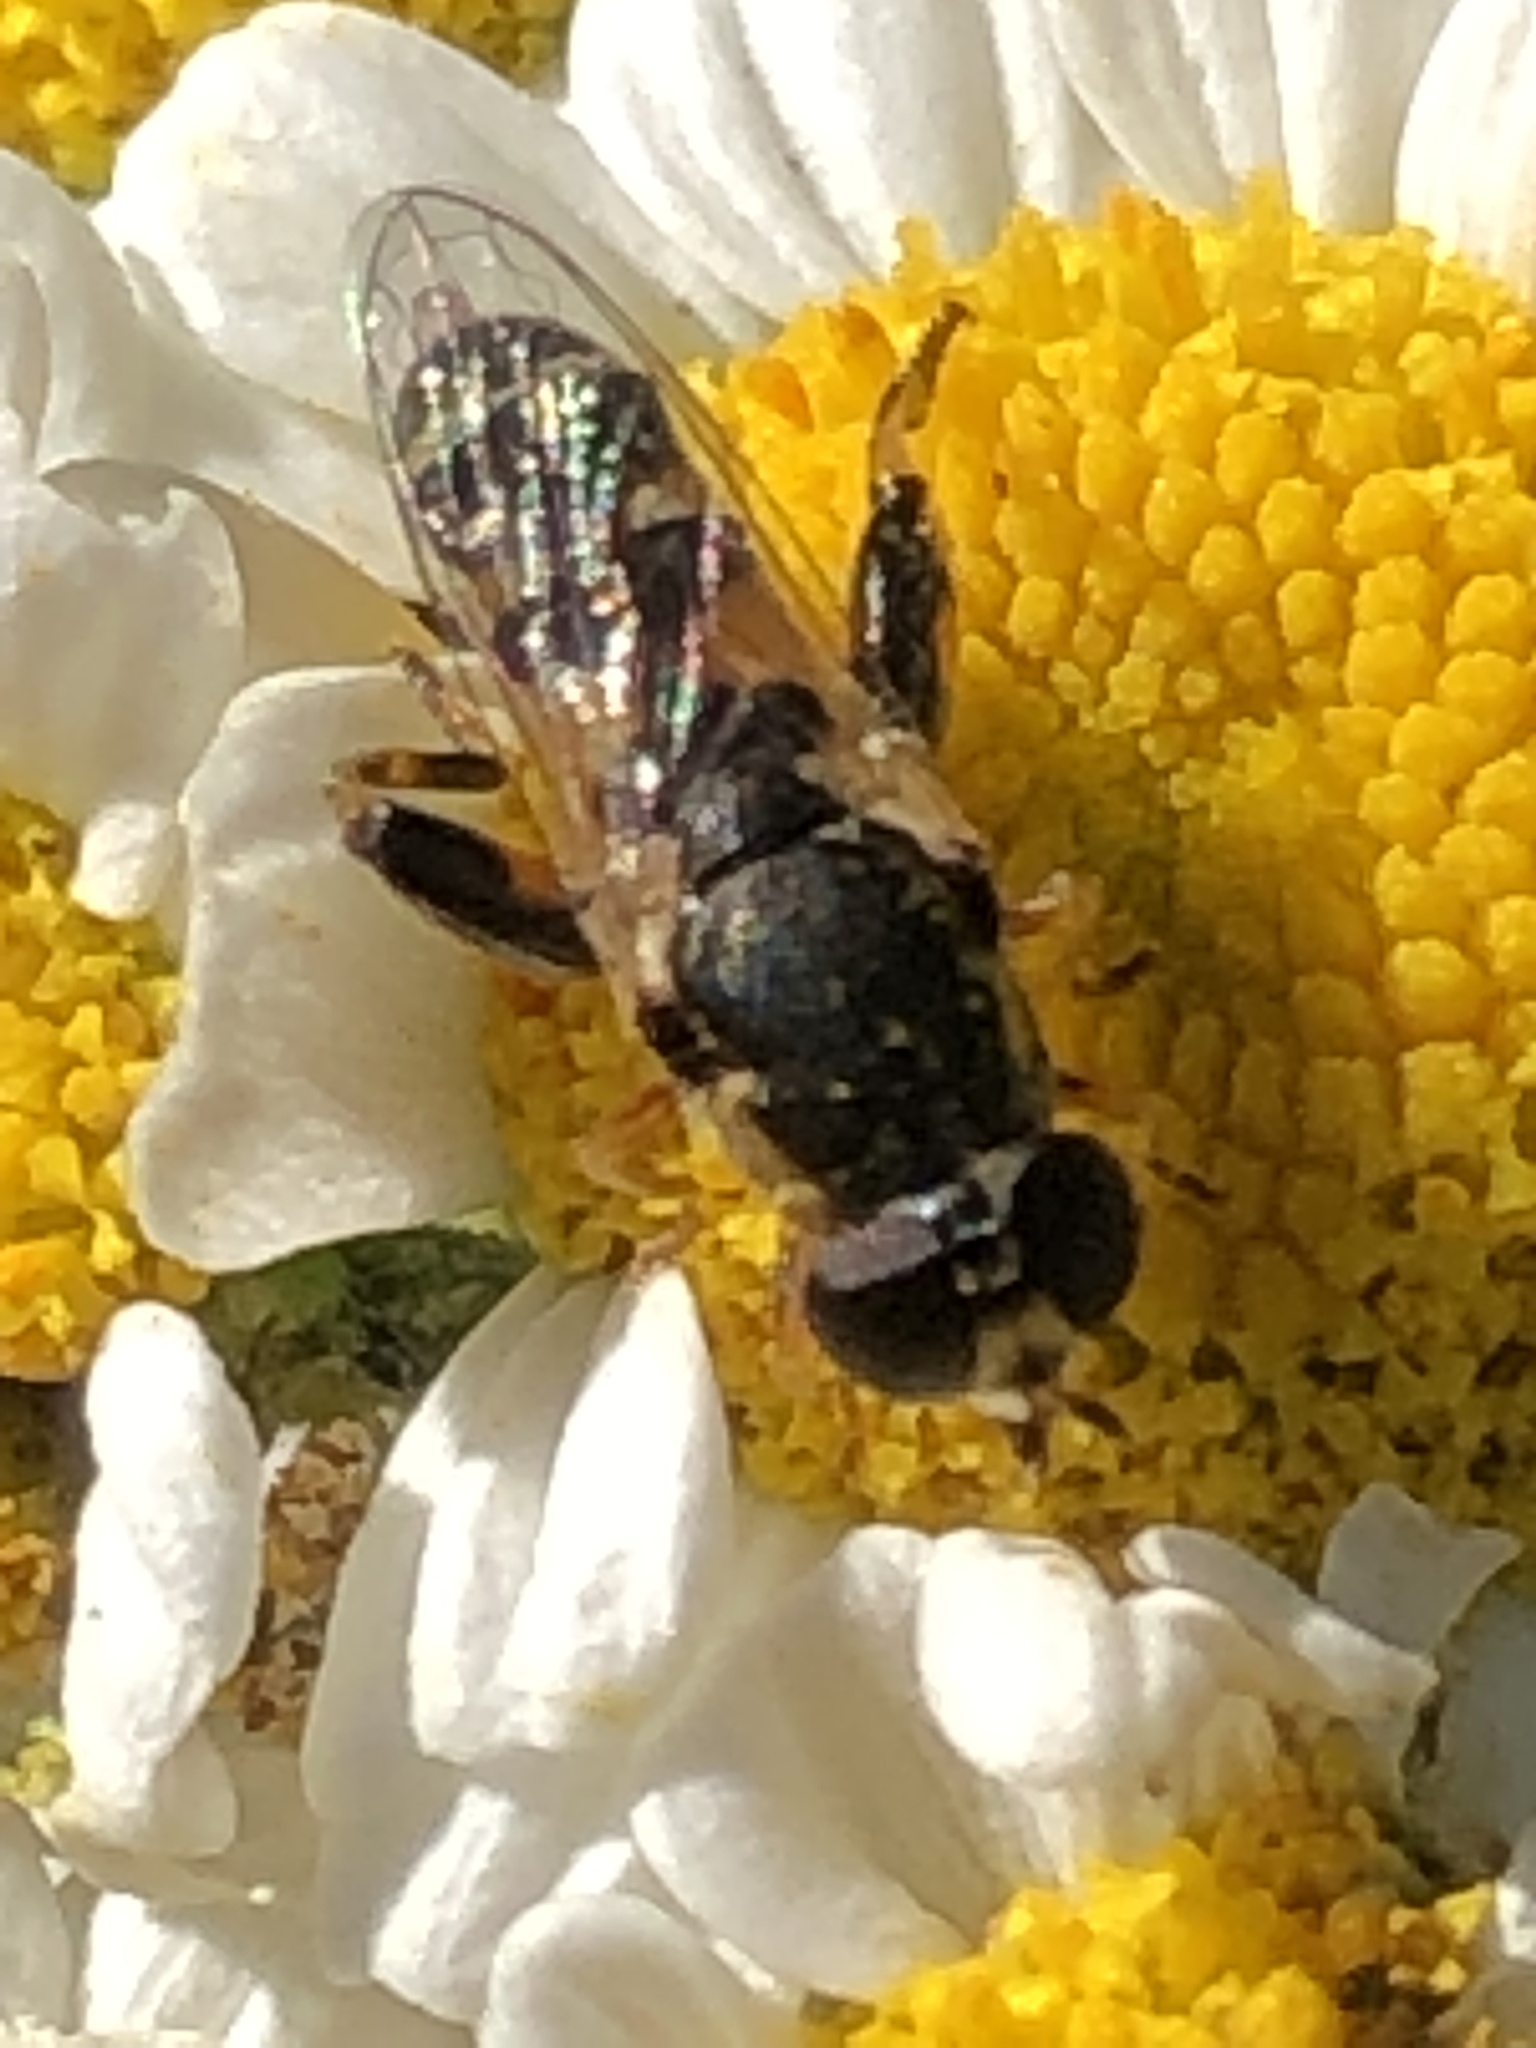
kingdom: Animalia
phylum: Arthropoda
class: Insecta
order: Diptera
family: Syrphidae
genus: Syritta
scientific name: Syritta pipiens
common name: Hover fly
